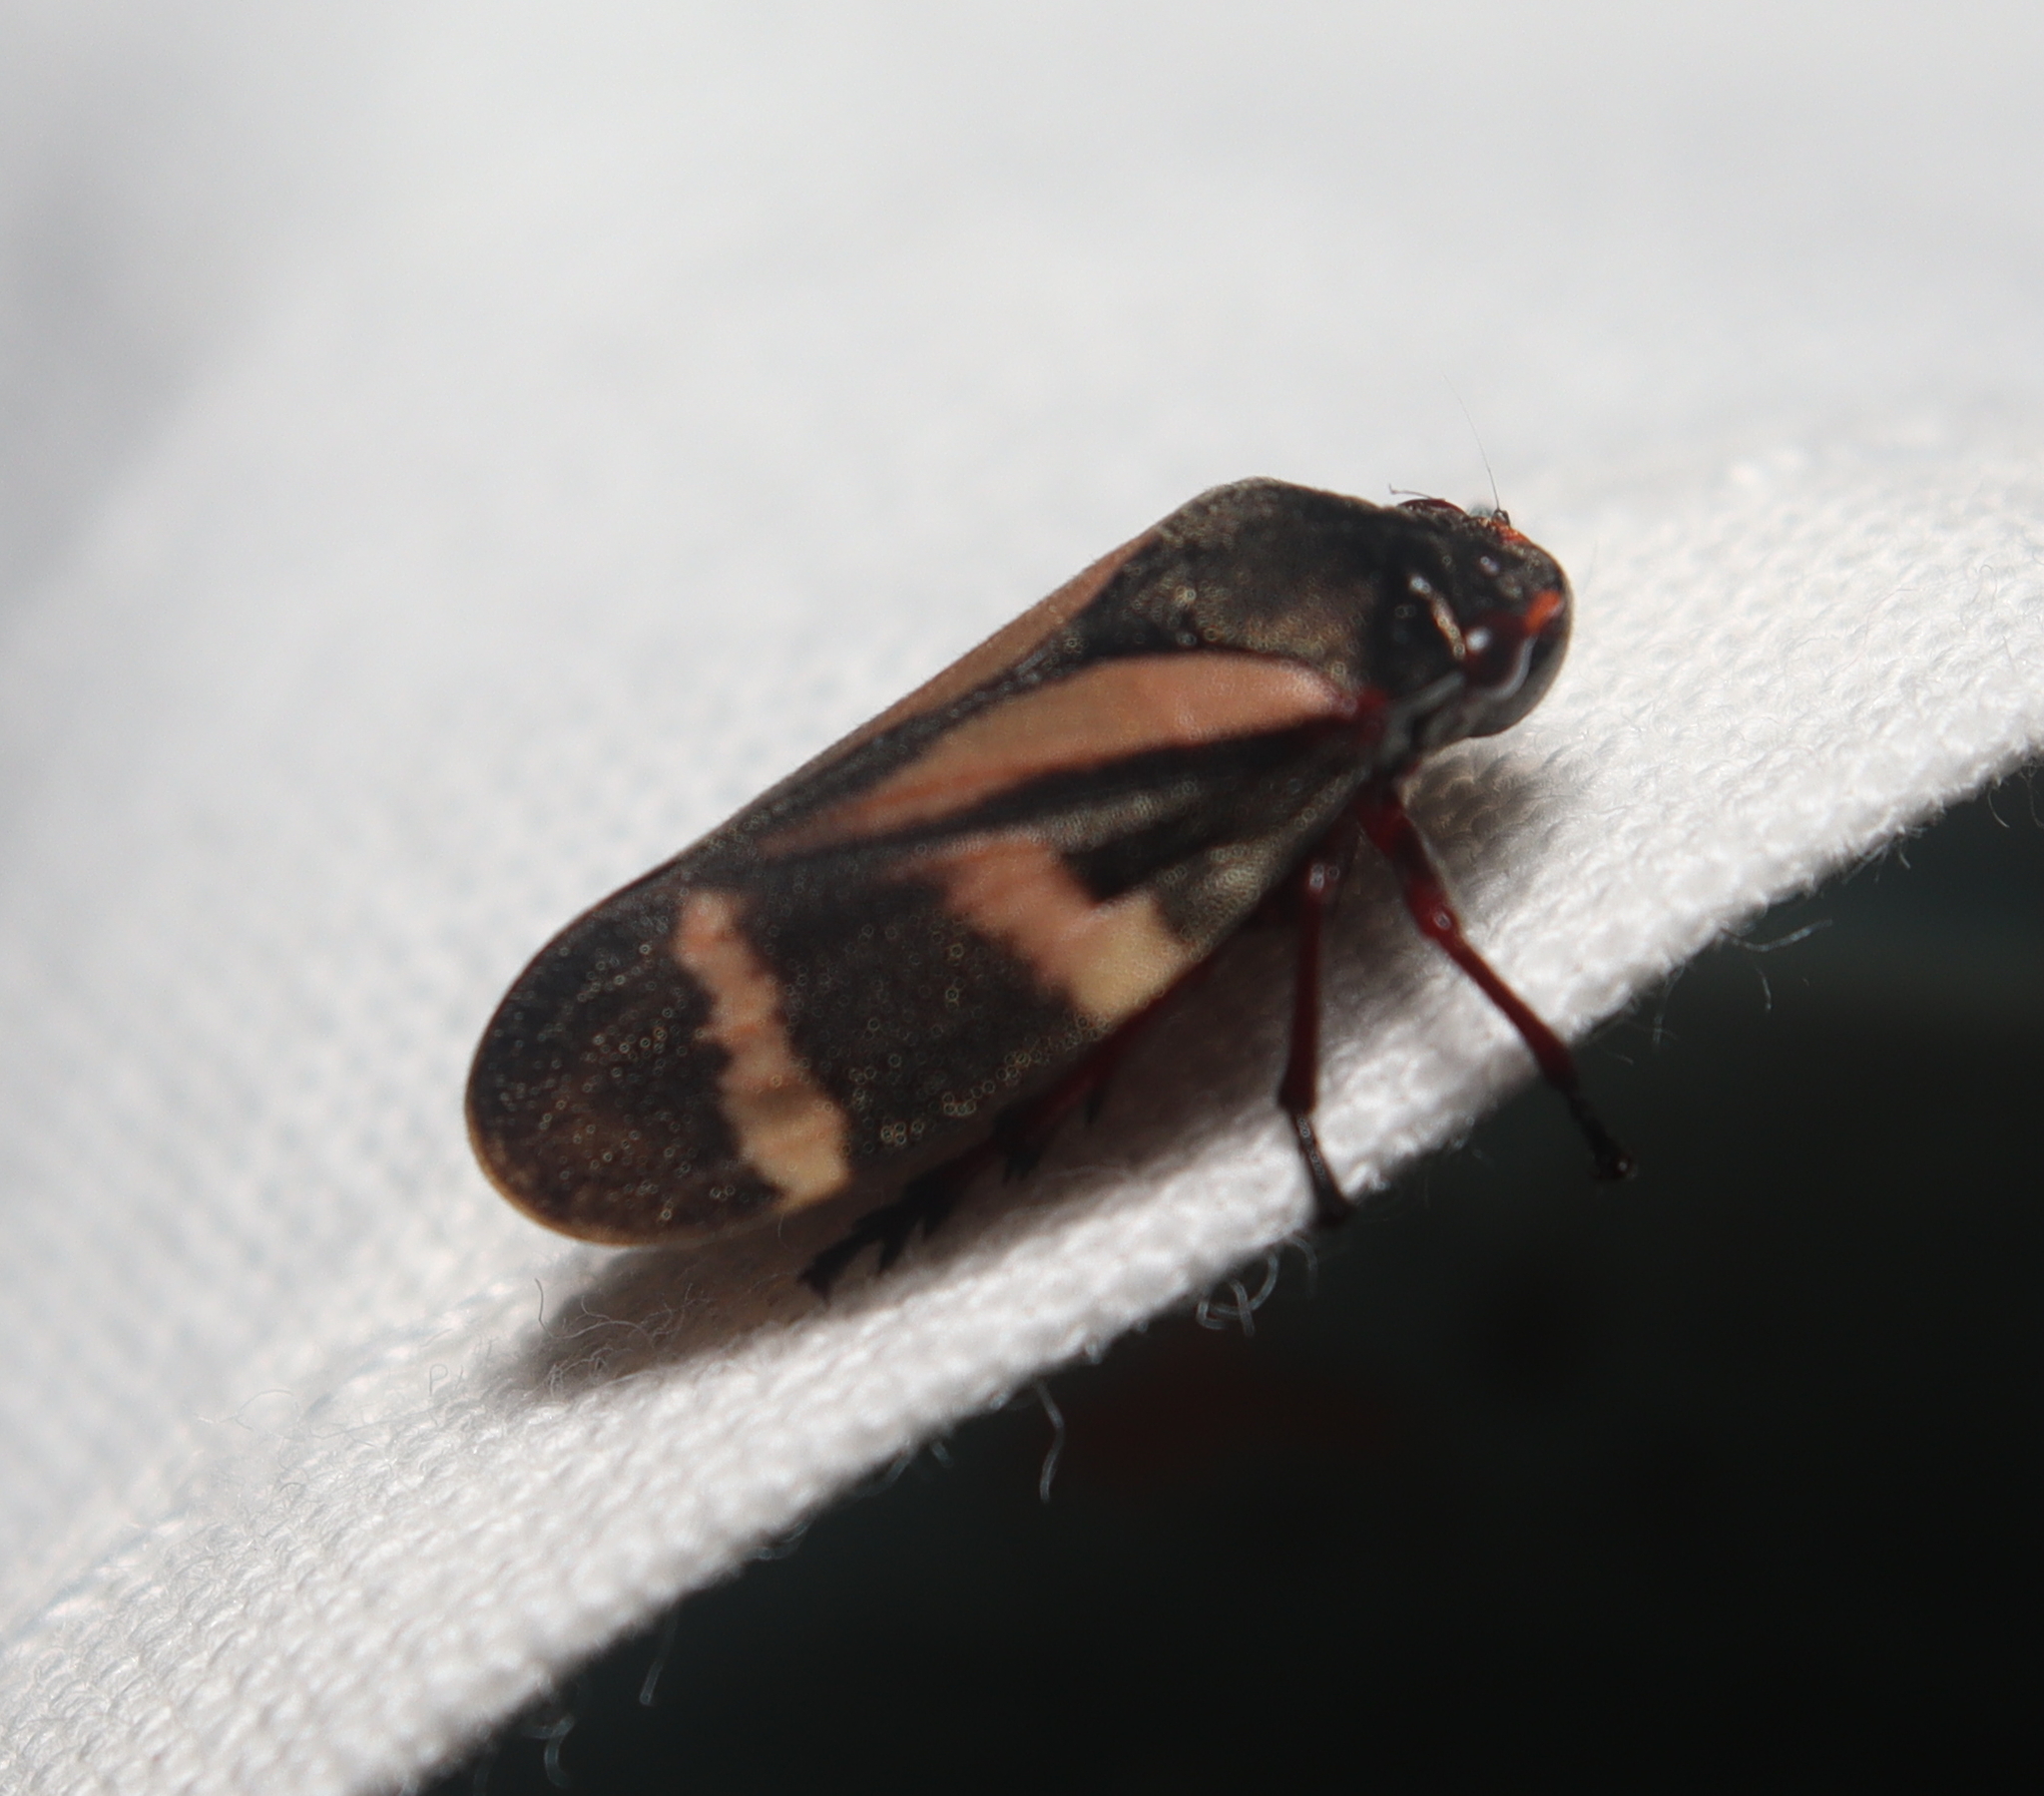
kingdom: Animalia
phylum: Arthropoda
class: Insecta
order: Hemiptera
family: Cercopidae
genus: Deois
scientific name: Deois flavopicta
